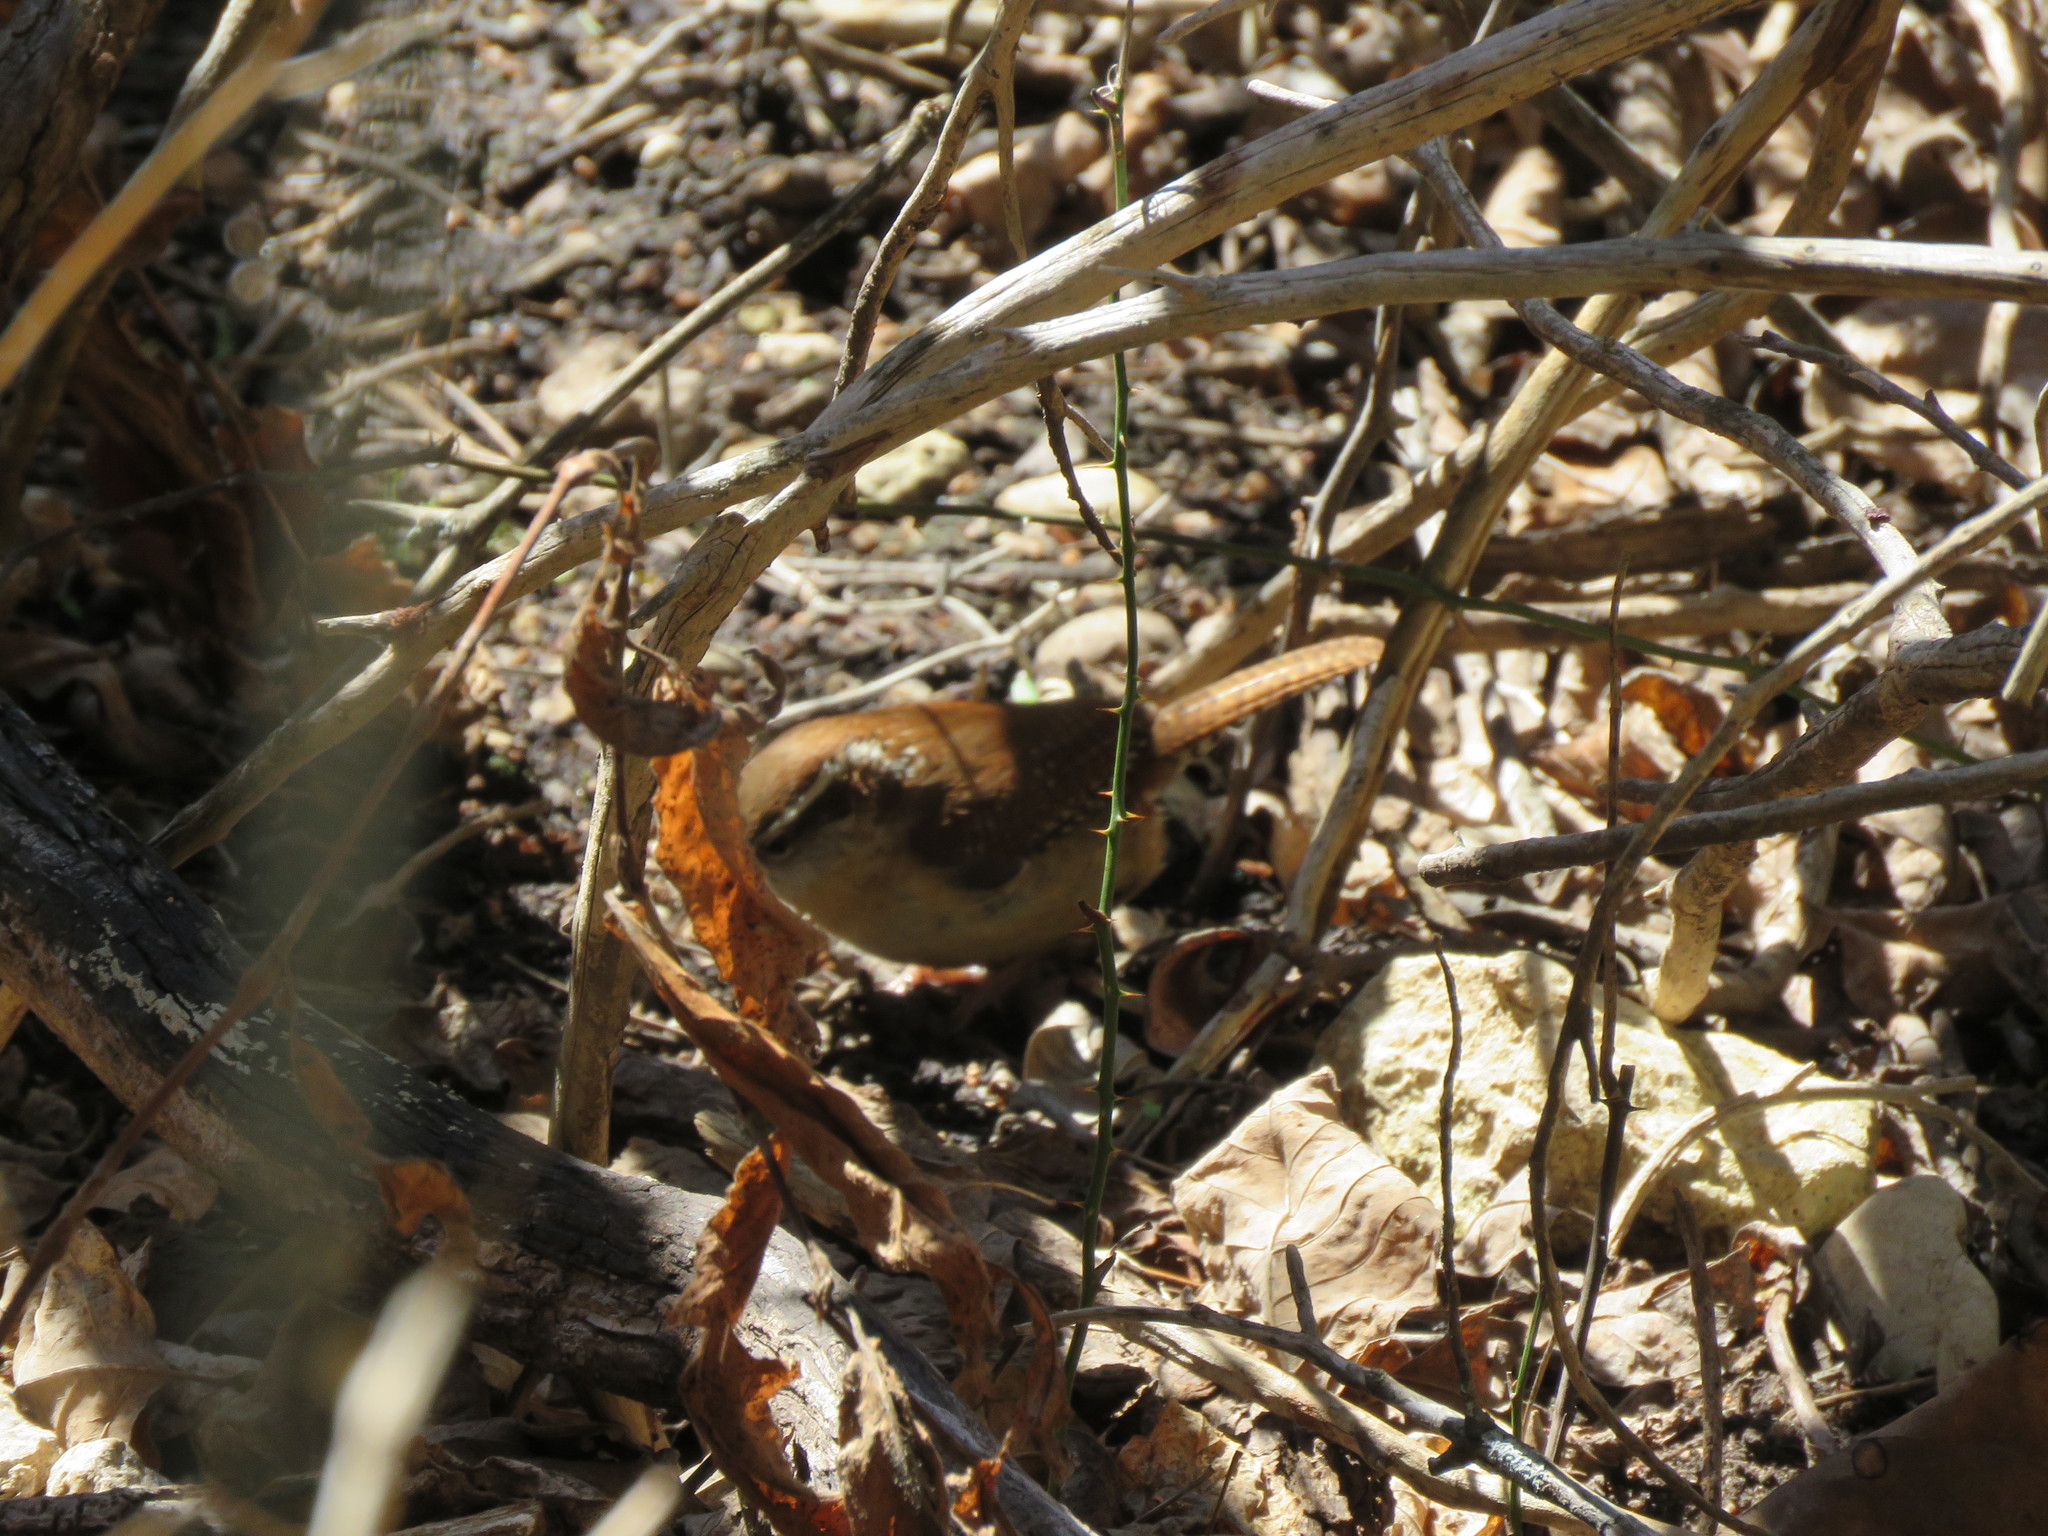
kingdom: Animalia
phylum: Chordata
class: Aves
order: Passeriformes
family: Troglodytidae
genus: Thryothorus
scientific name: Thryothorus ludovicianus
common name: Carolina wren
